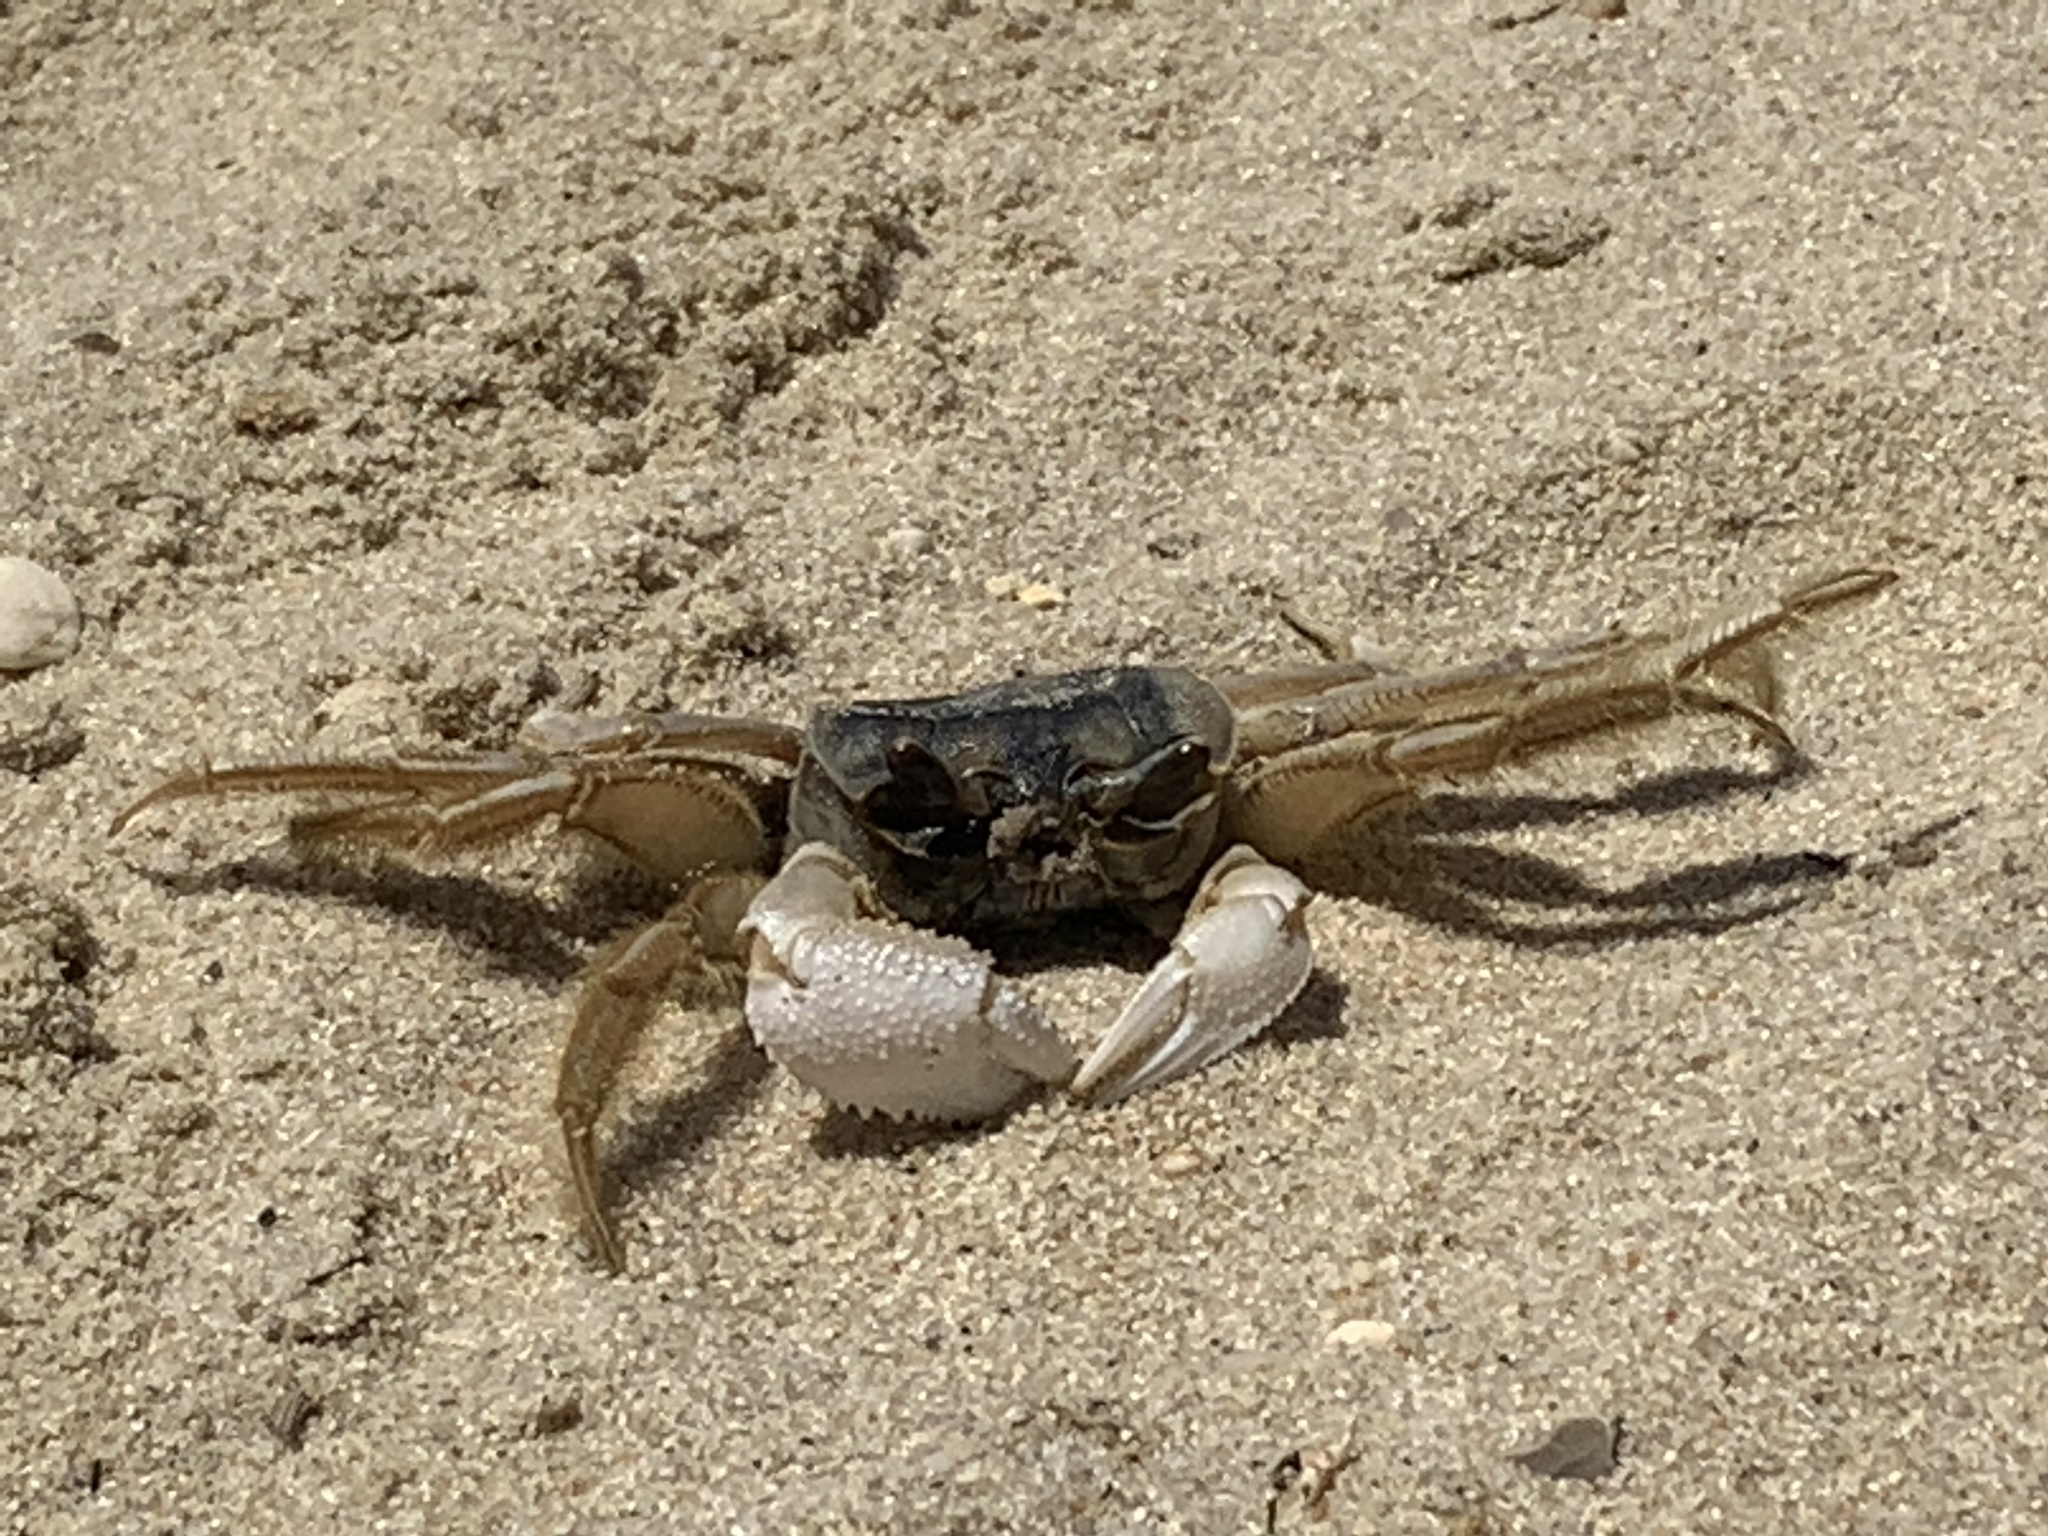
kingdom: Animalia
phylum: Arthropoda
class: Malacostraca
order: Decapoda
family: Ocypodidae
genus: Ocypode
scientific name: Ocypode quadrata
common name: Ghost crab
